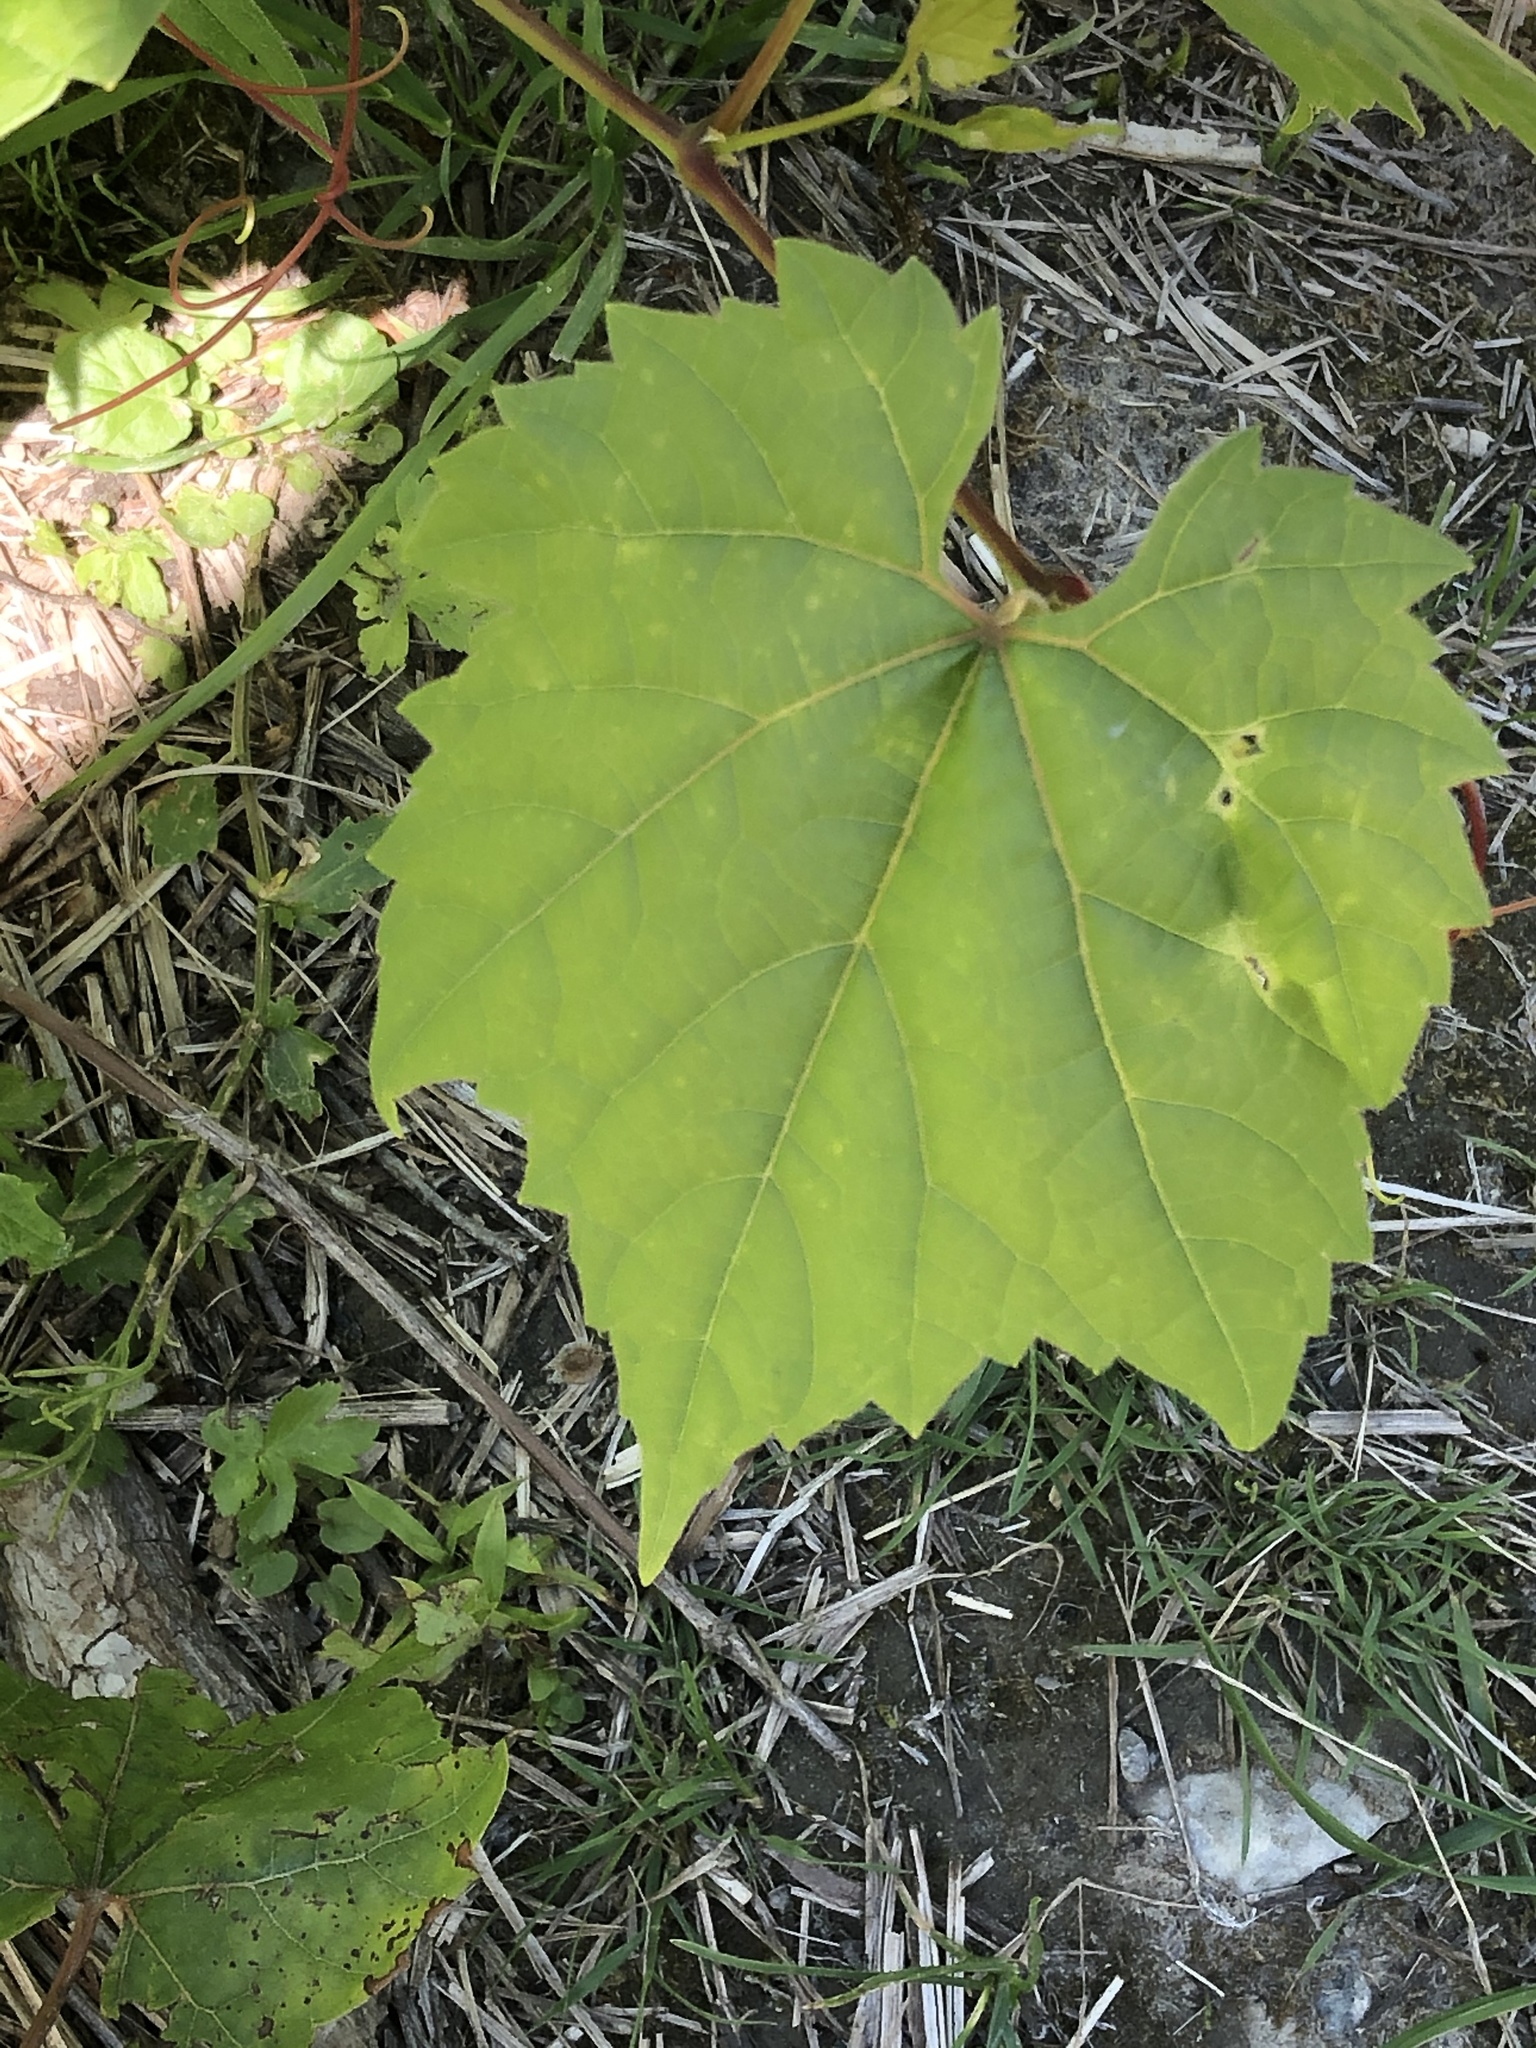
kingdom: Plantae
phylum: Tracheophyta
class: Magnoliopsida
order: Vitales
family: Vitaceae
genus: Vitis
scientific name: Vitis riparia
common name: Frost grape
